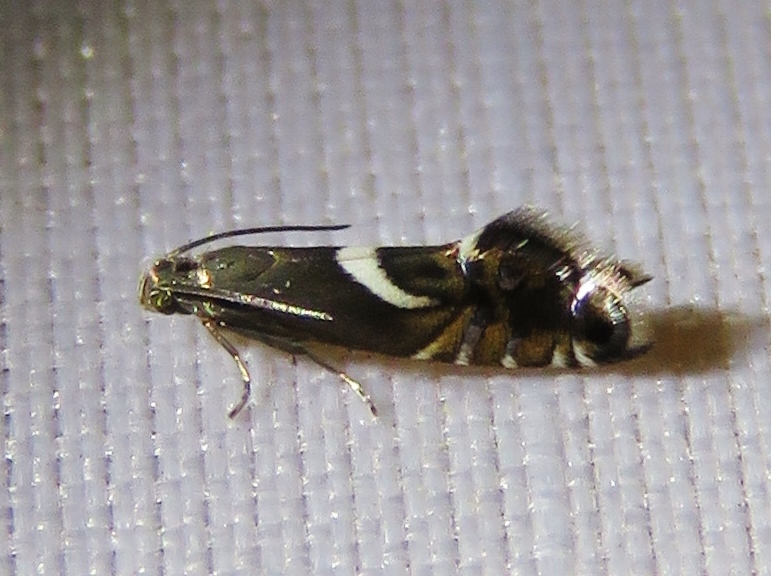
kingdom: Animalia
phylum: Arthropoda
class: Insecta
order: Lepidoptera
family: Glyphipterigidae
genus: Glyphipterix
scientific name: Glyphipterix Diploschizia impigritella
